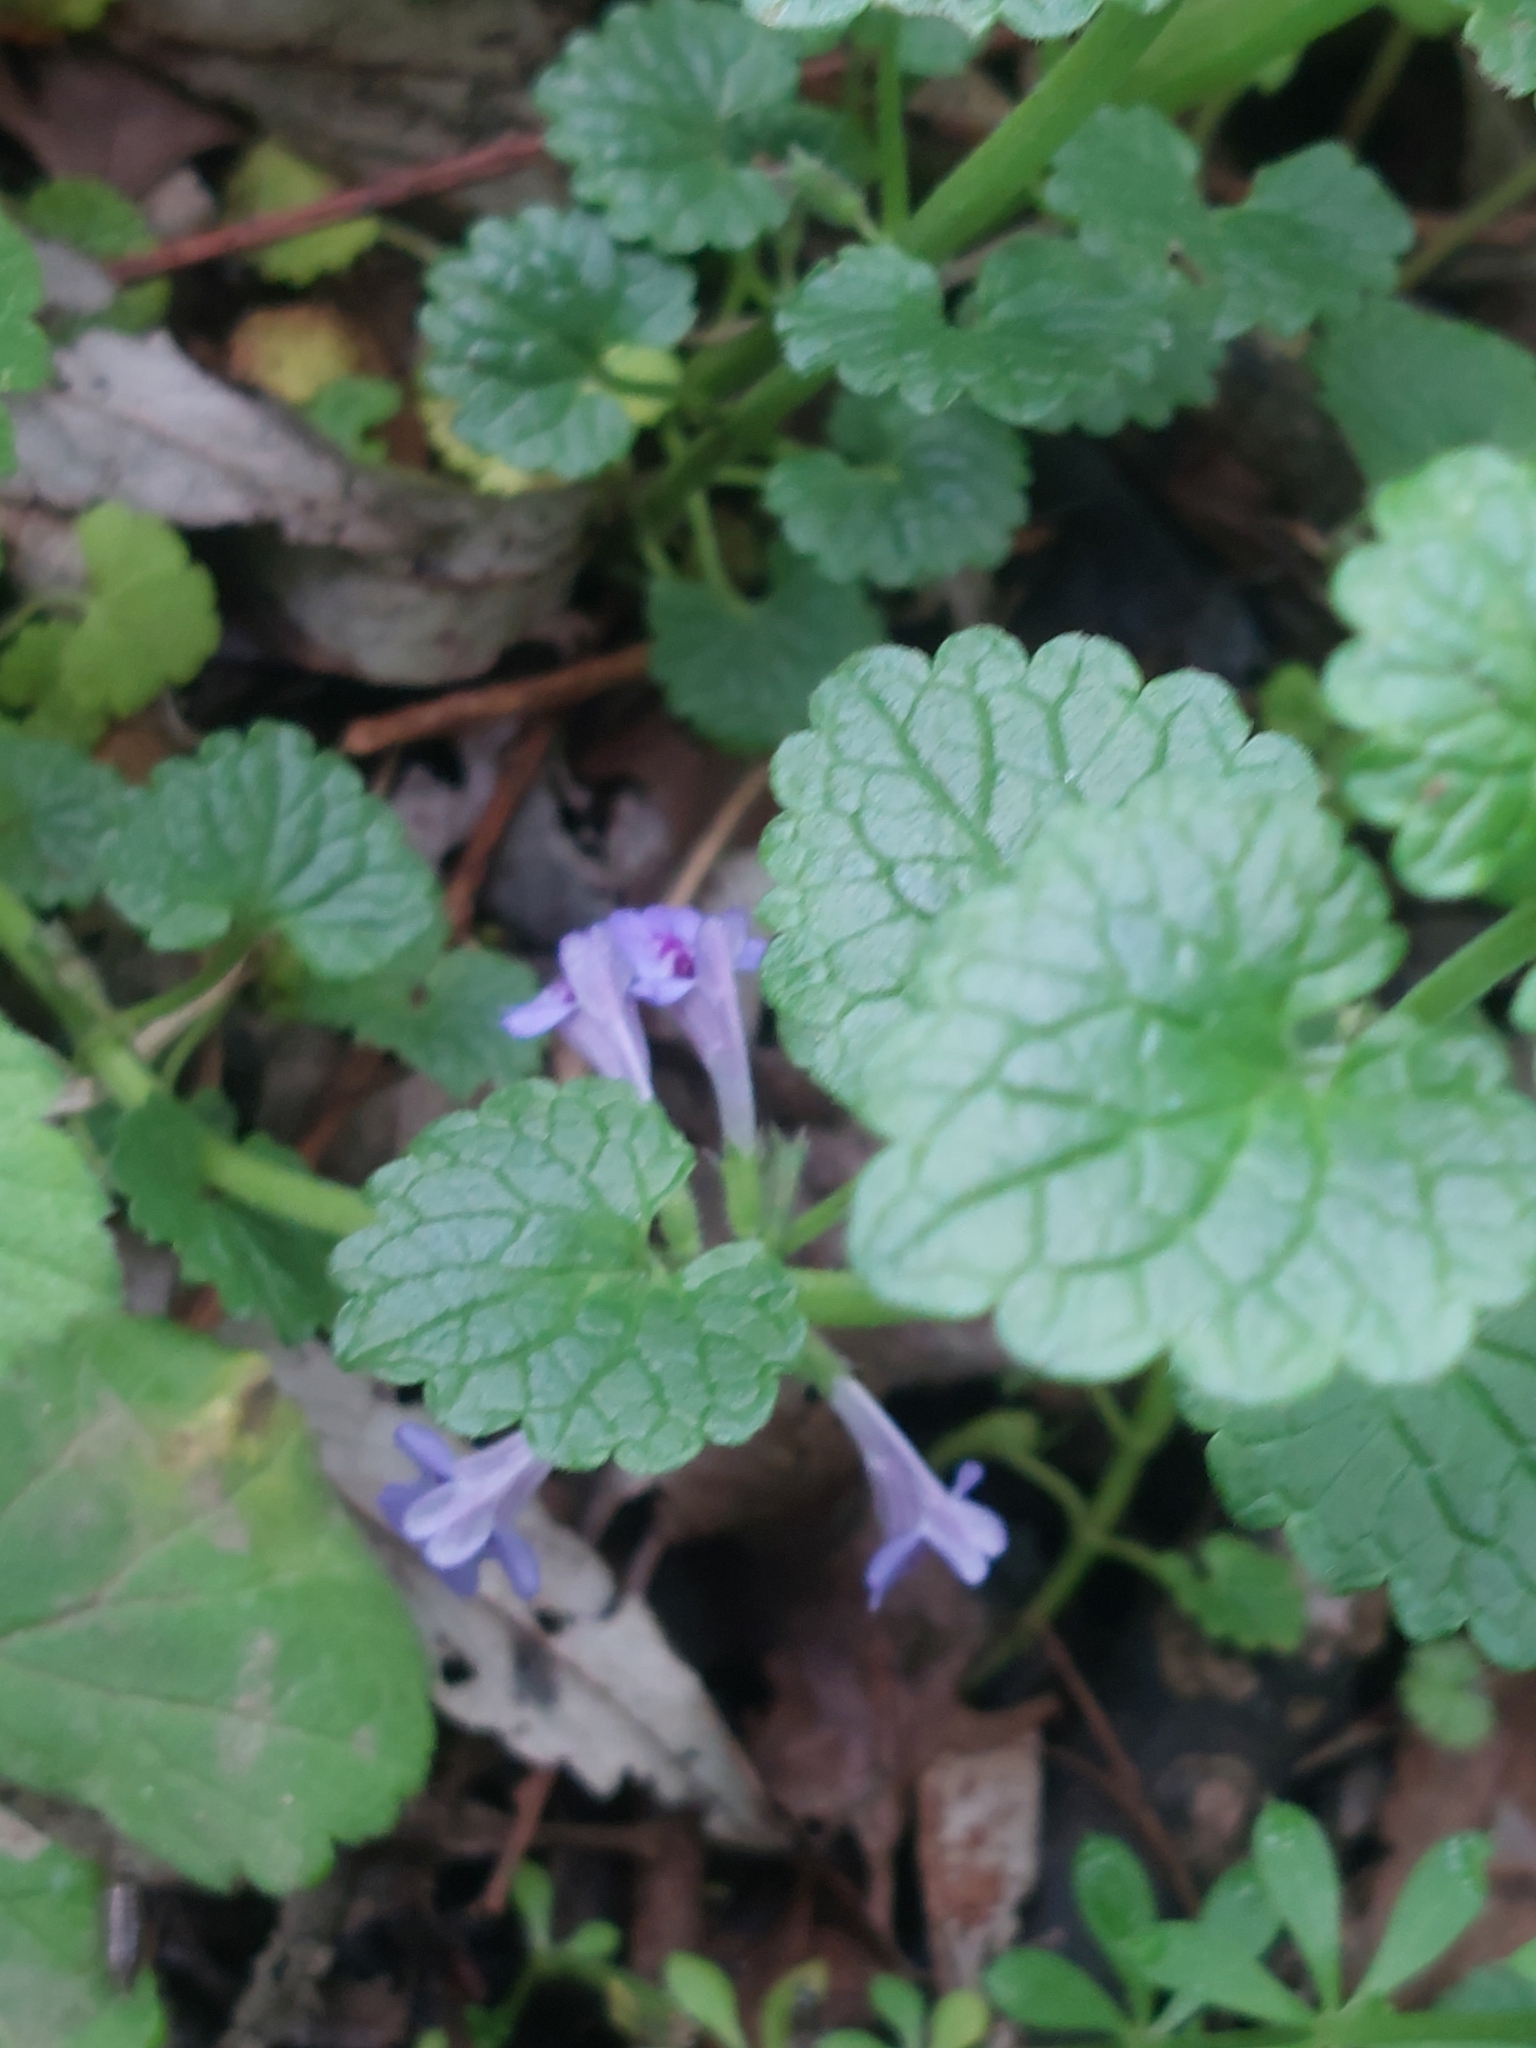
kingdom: Plantae
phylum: Tracheophyta
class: Magnoliopsida
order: Lamiales
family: Lamiaceae
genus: Glechoma
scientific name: Glechoma hederacea
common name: Ground ivy
